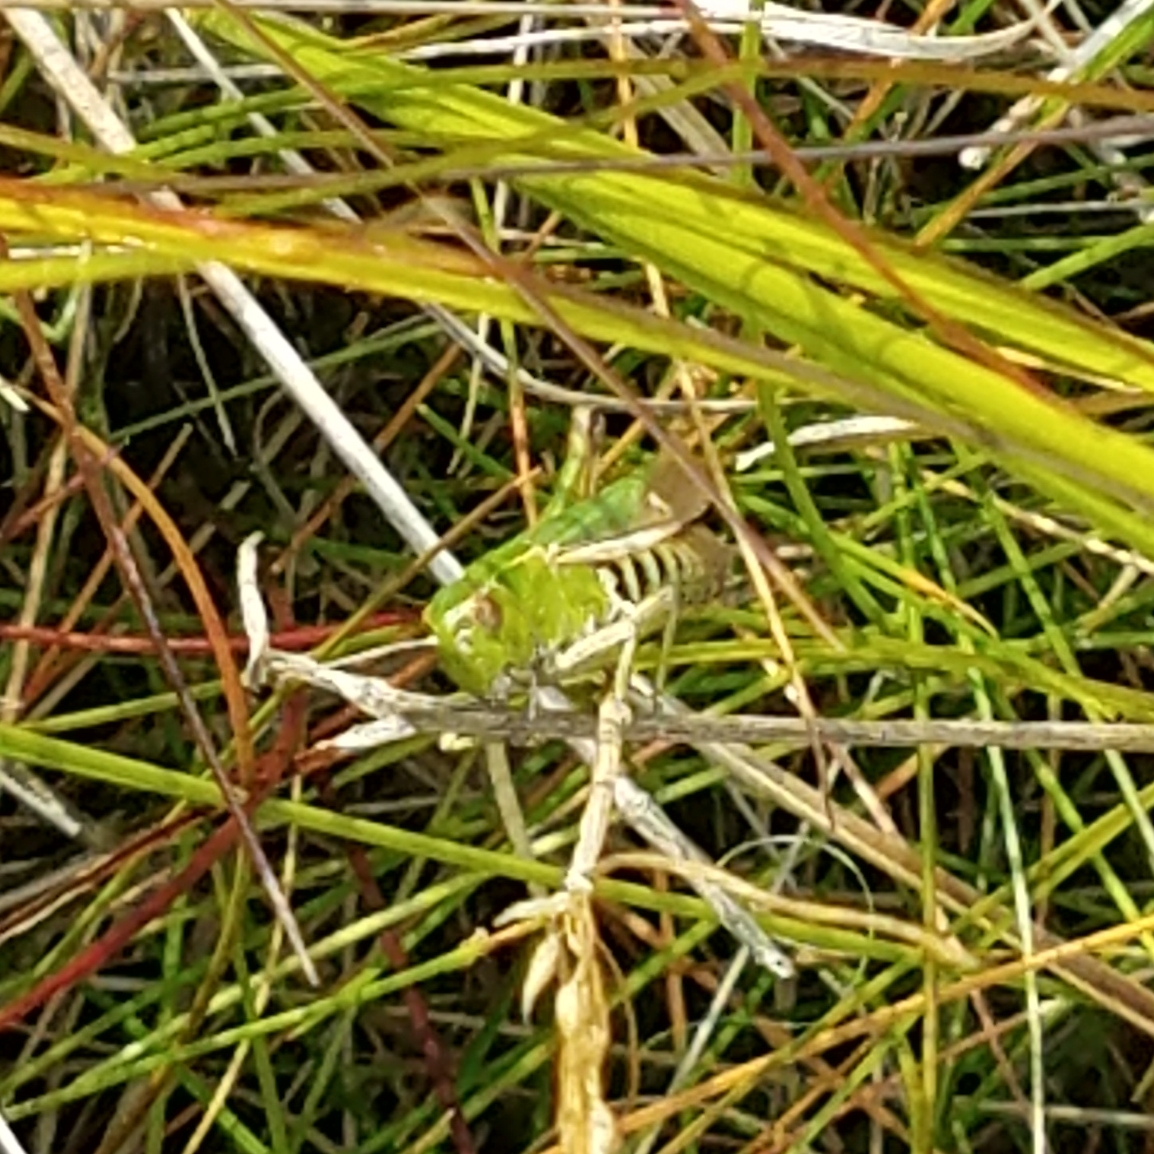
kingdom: Animalia
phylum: Arthropoda
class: Insecta
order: Orthoptera
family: Acrididae
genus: Omocestus
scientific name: Omocestus viridulus
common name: Common green grasshopper
